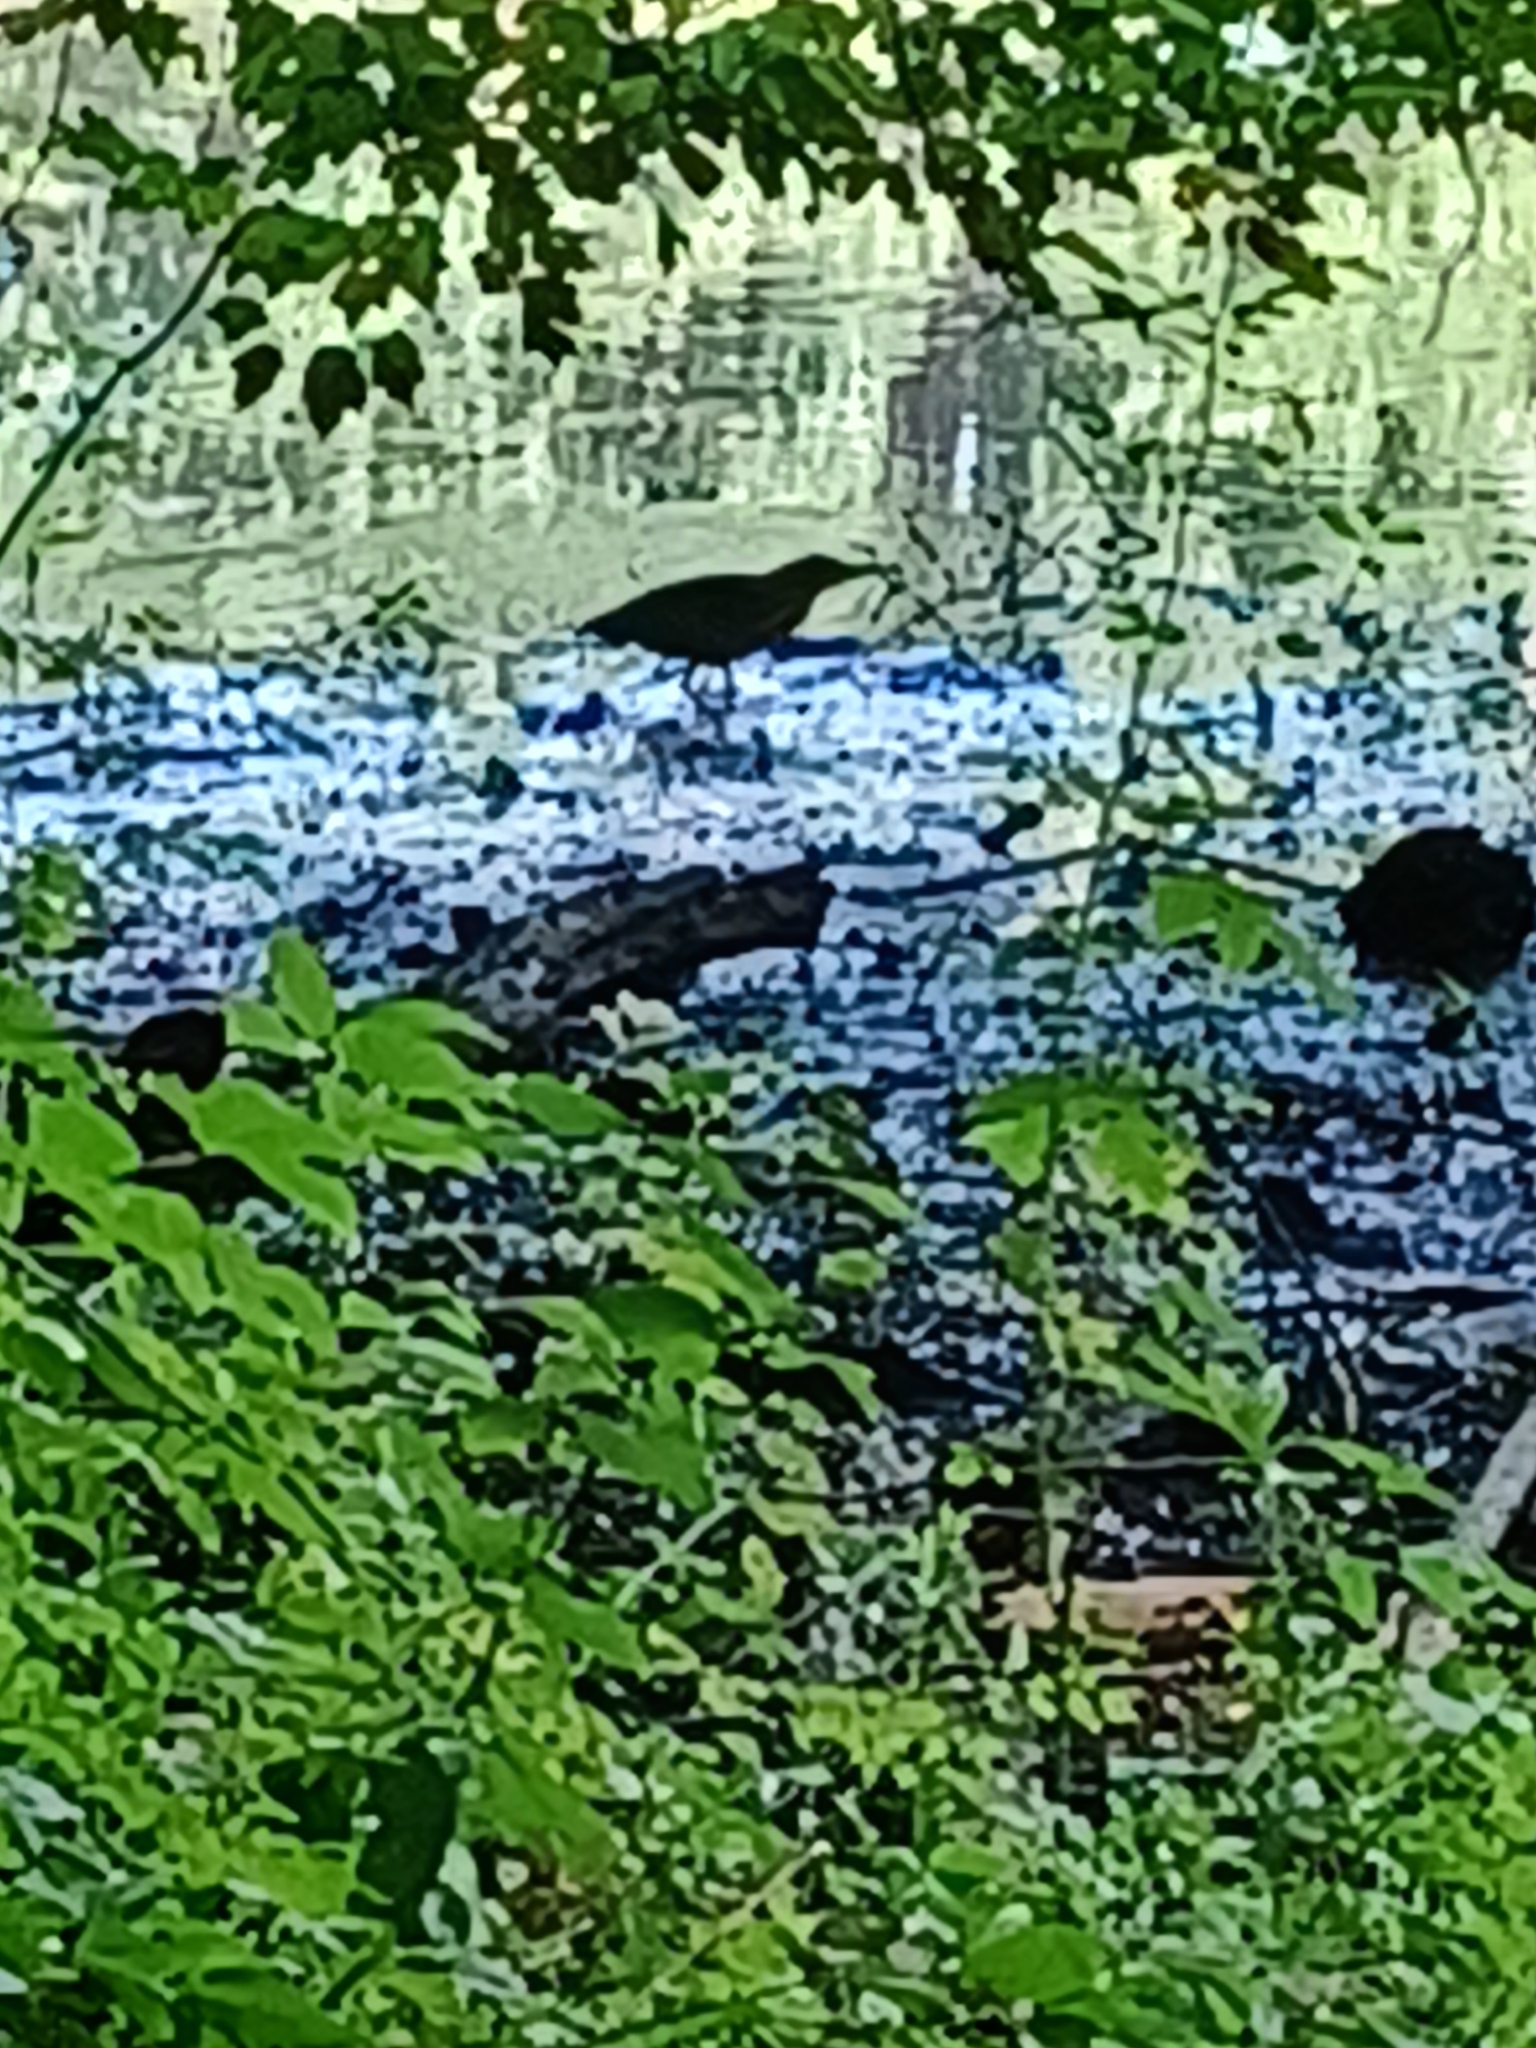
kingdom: Animalia
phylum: Chordata
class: Aves
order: Pelecaniformes
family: Ardeidae
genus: Butorides
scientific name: Butorides virescens
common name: Green heron
